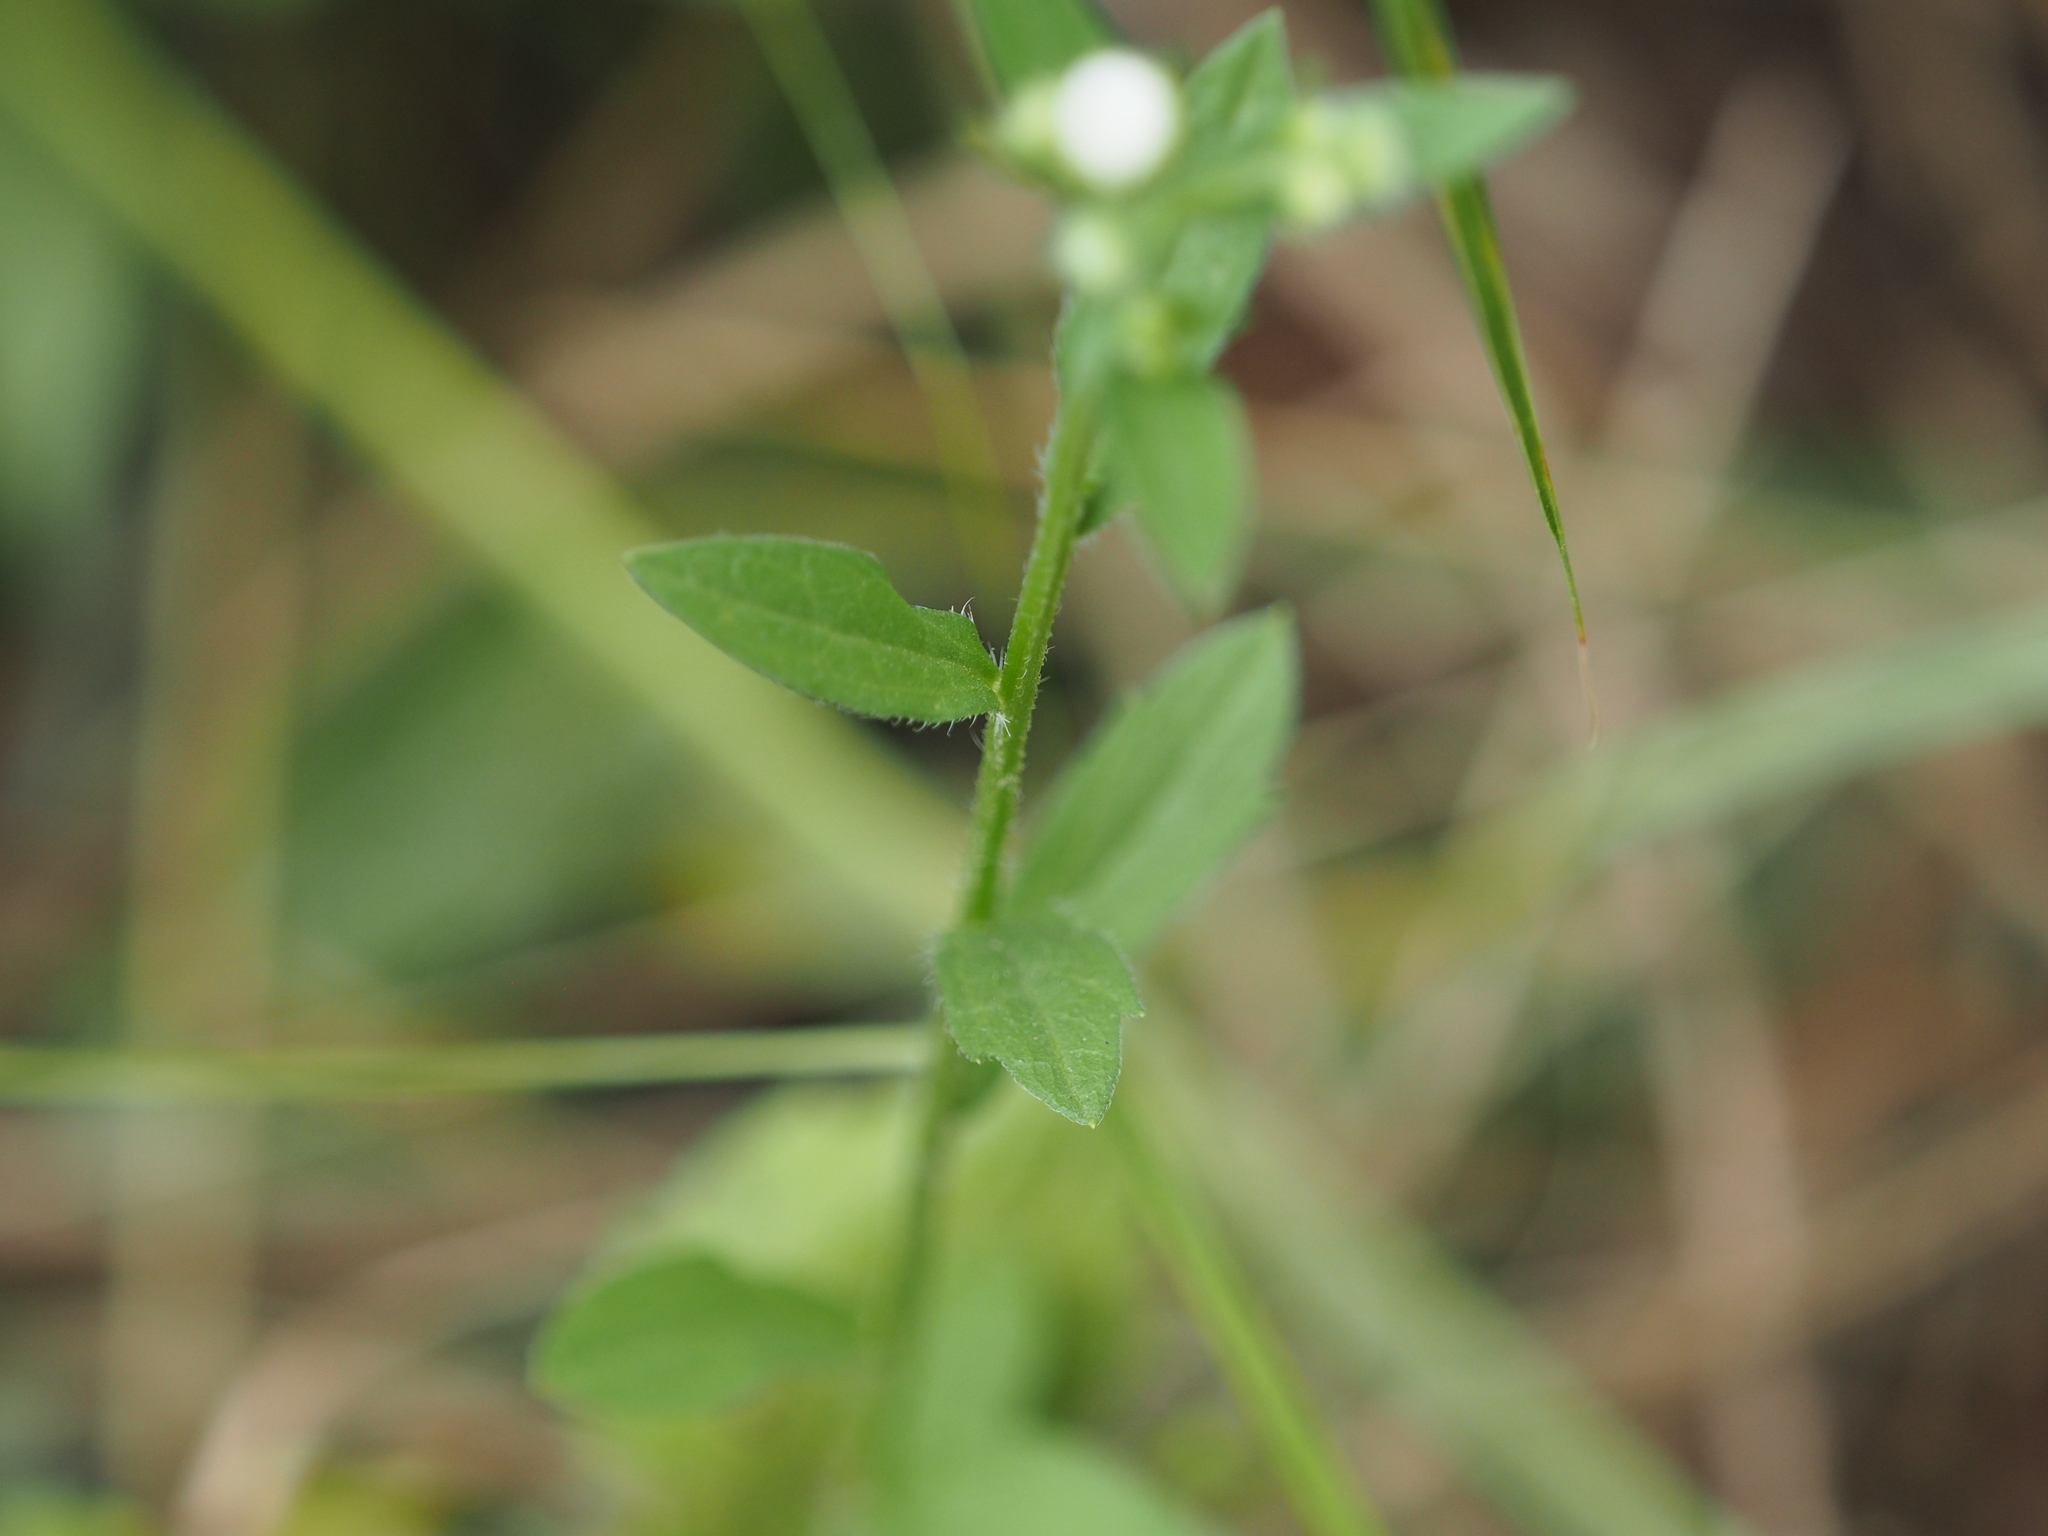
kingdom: Plantae
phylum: Tracheophyta
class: Magnoliopsida
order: Asterales
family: Asteraceae
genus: Erigeron
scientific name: Erigeron strigosus
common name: Common eastern fleabane
